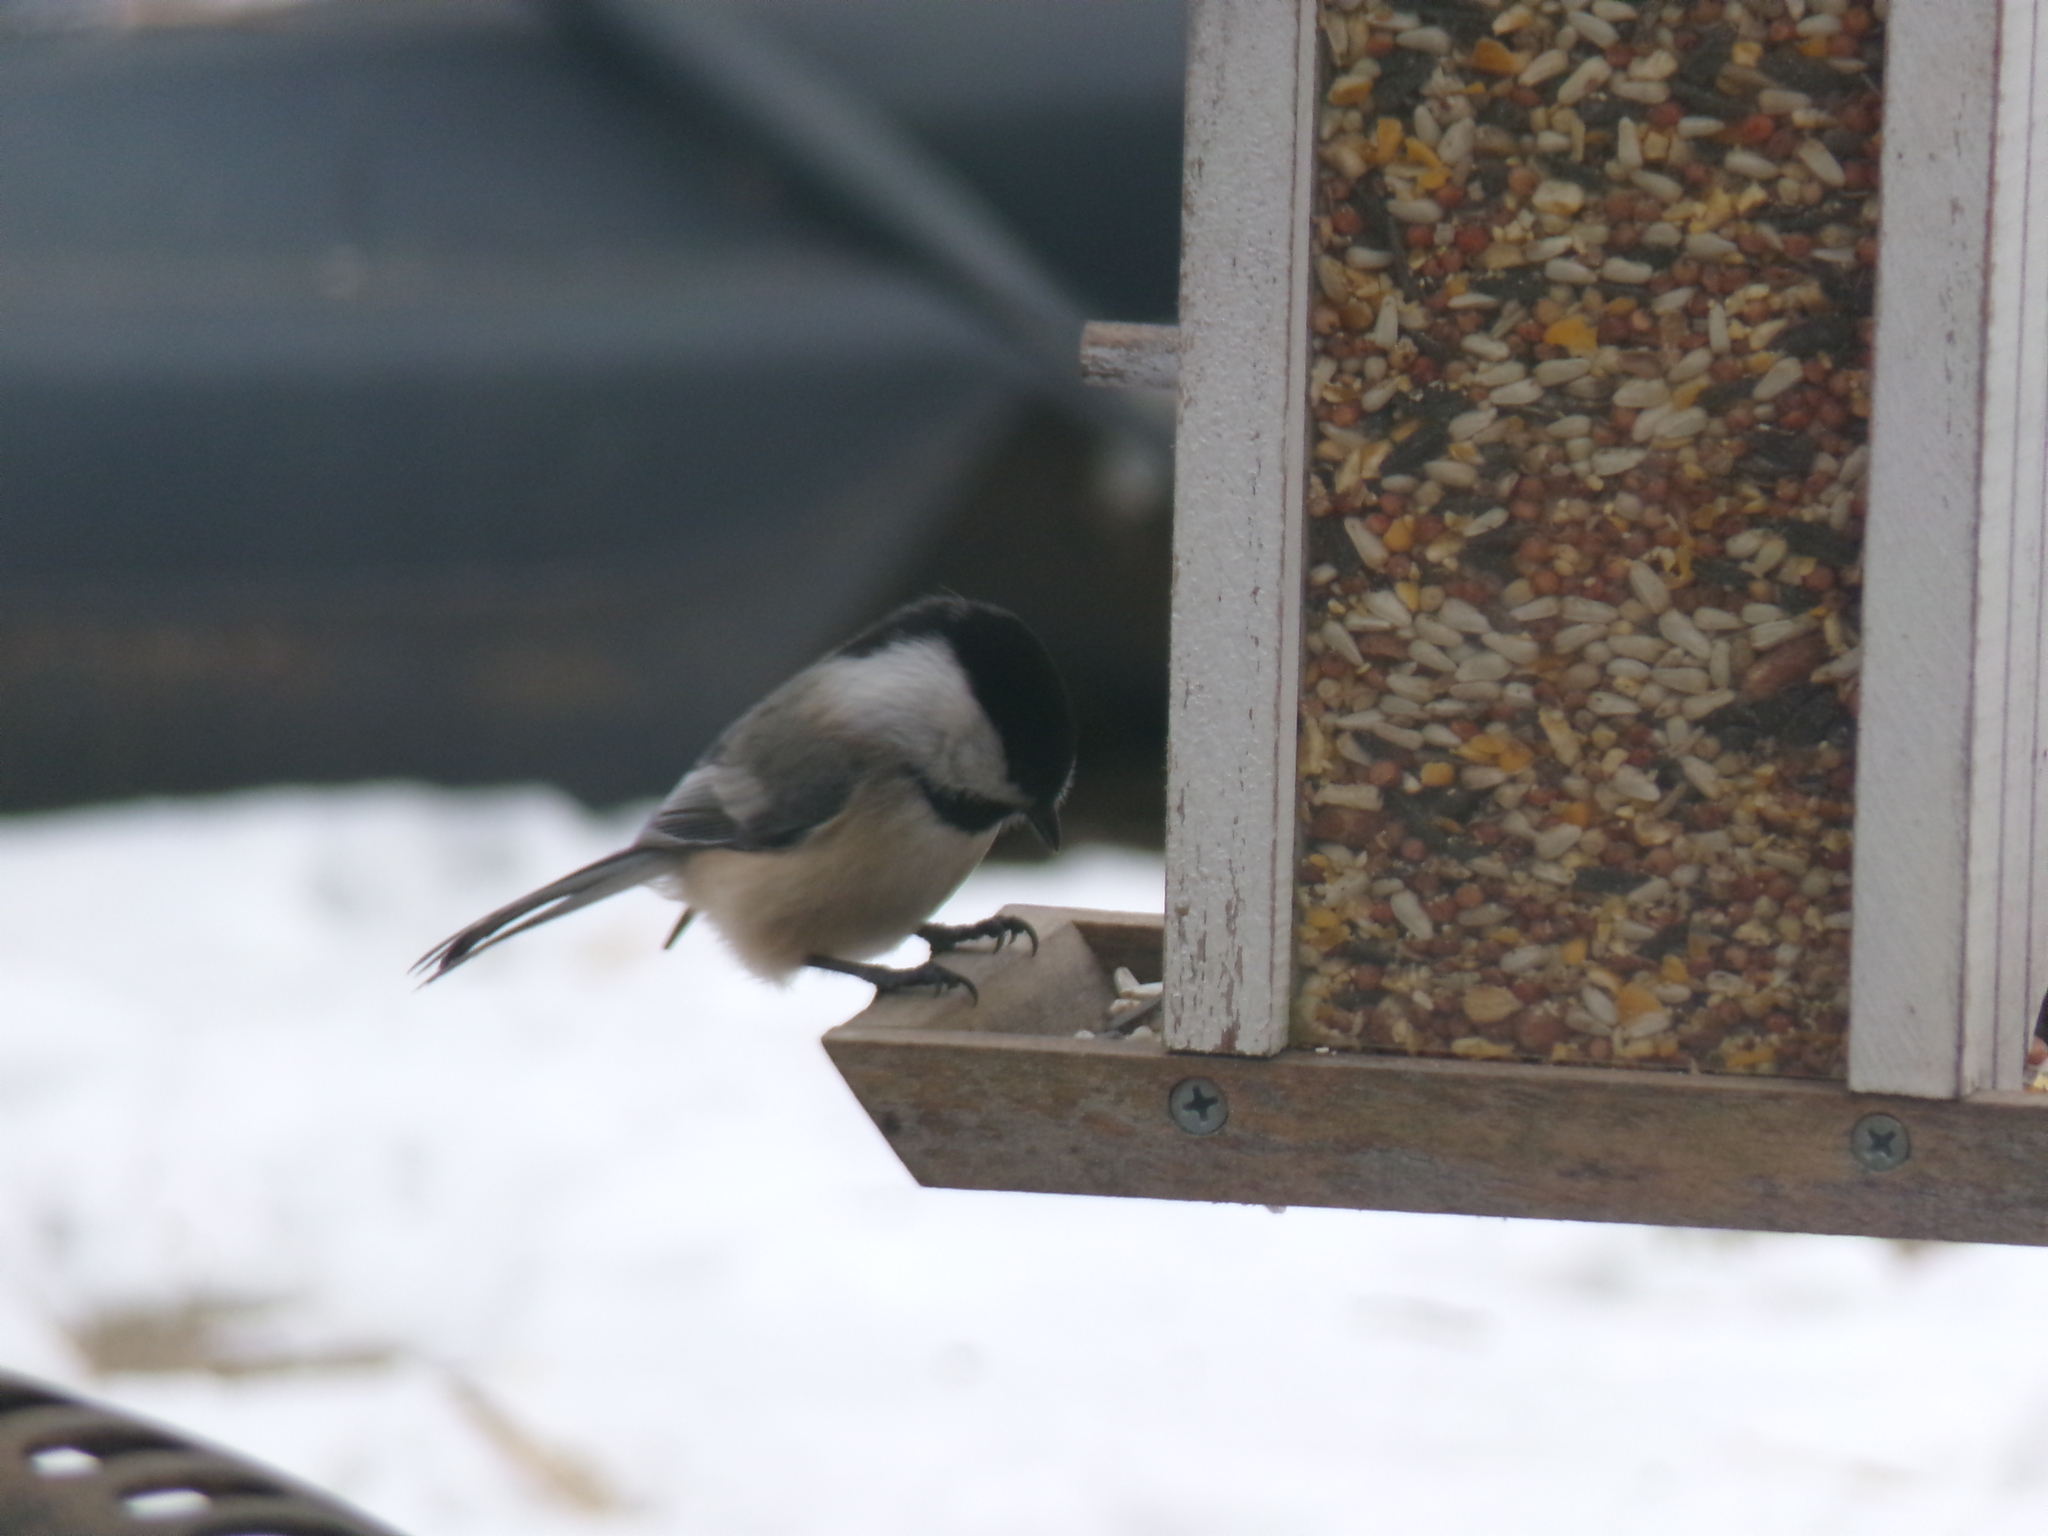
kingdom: Animalia
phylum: Chordata
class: Aves
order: Passeriformes
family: Paridae
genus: Poecile
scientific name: Poecile atricapillus
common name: Black-capped chickadee
